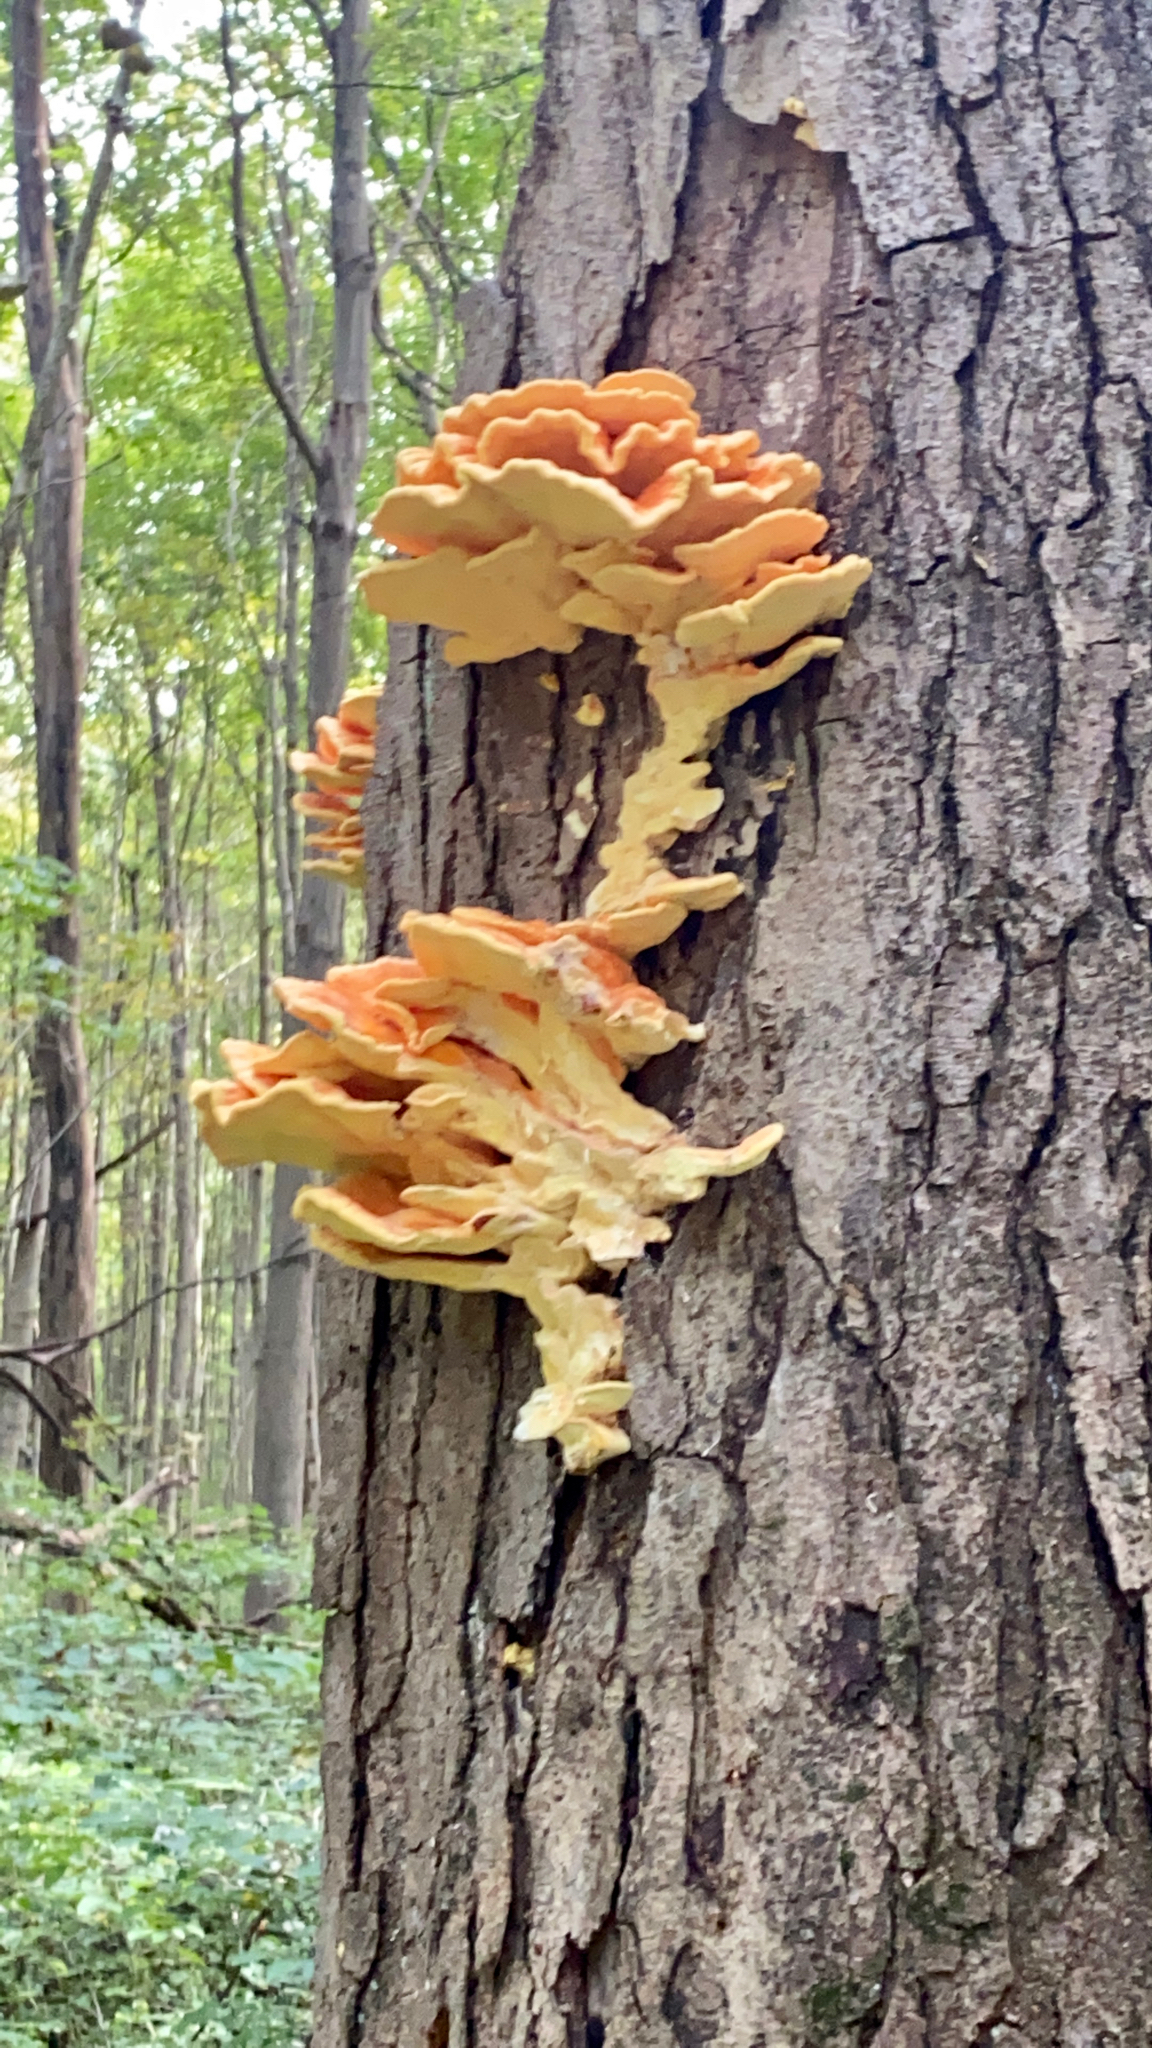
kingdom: Fungi
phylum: Basidiomycota
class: Agaricomycetes
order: Polyporales
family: Laetiporaceae
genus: Laetiporus
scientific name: Laetiporus sulphureus
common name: Chicken of the woods
